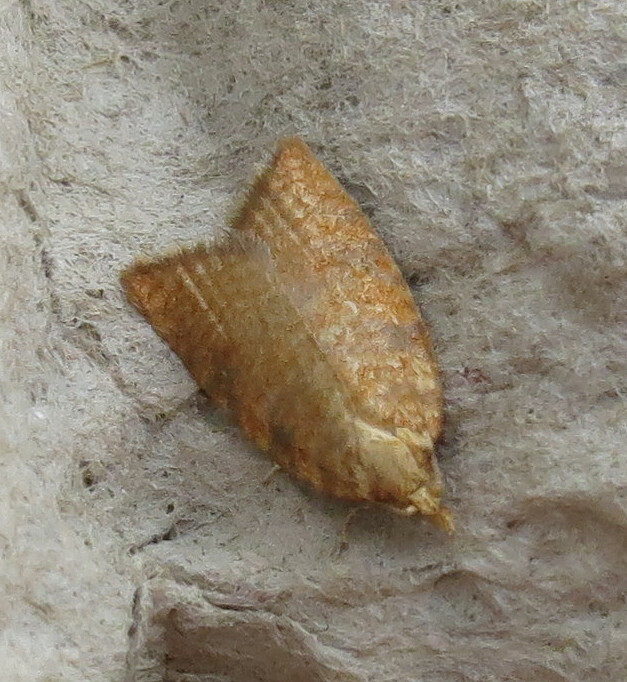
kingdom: Animalia
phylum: Arthropoda
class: Insecta
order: Lepidoptera
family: Tortricidae
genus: Aleimma
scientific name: Aleimma loeflingiana
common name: Yellow oak button
